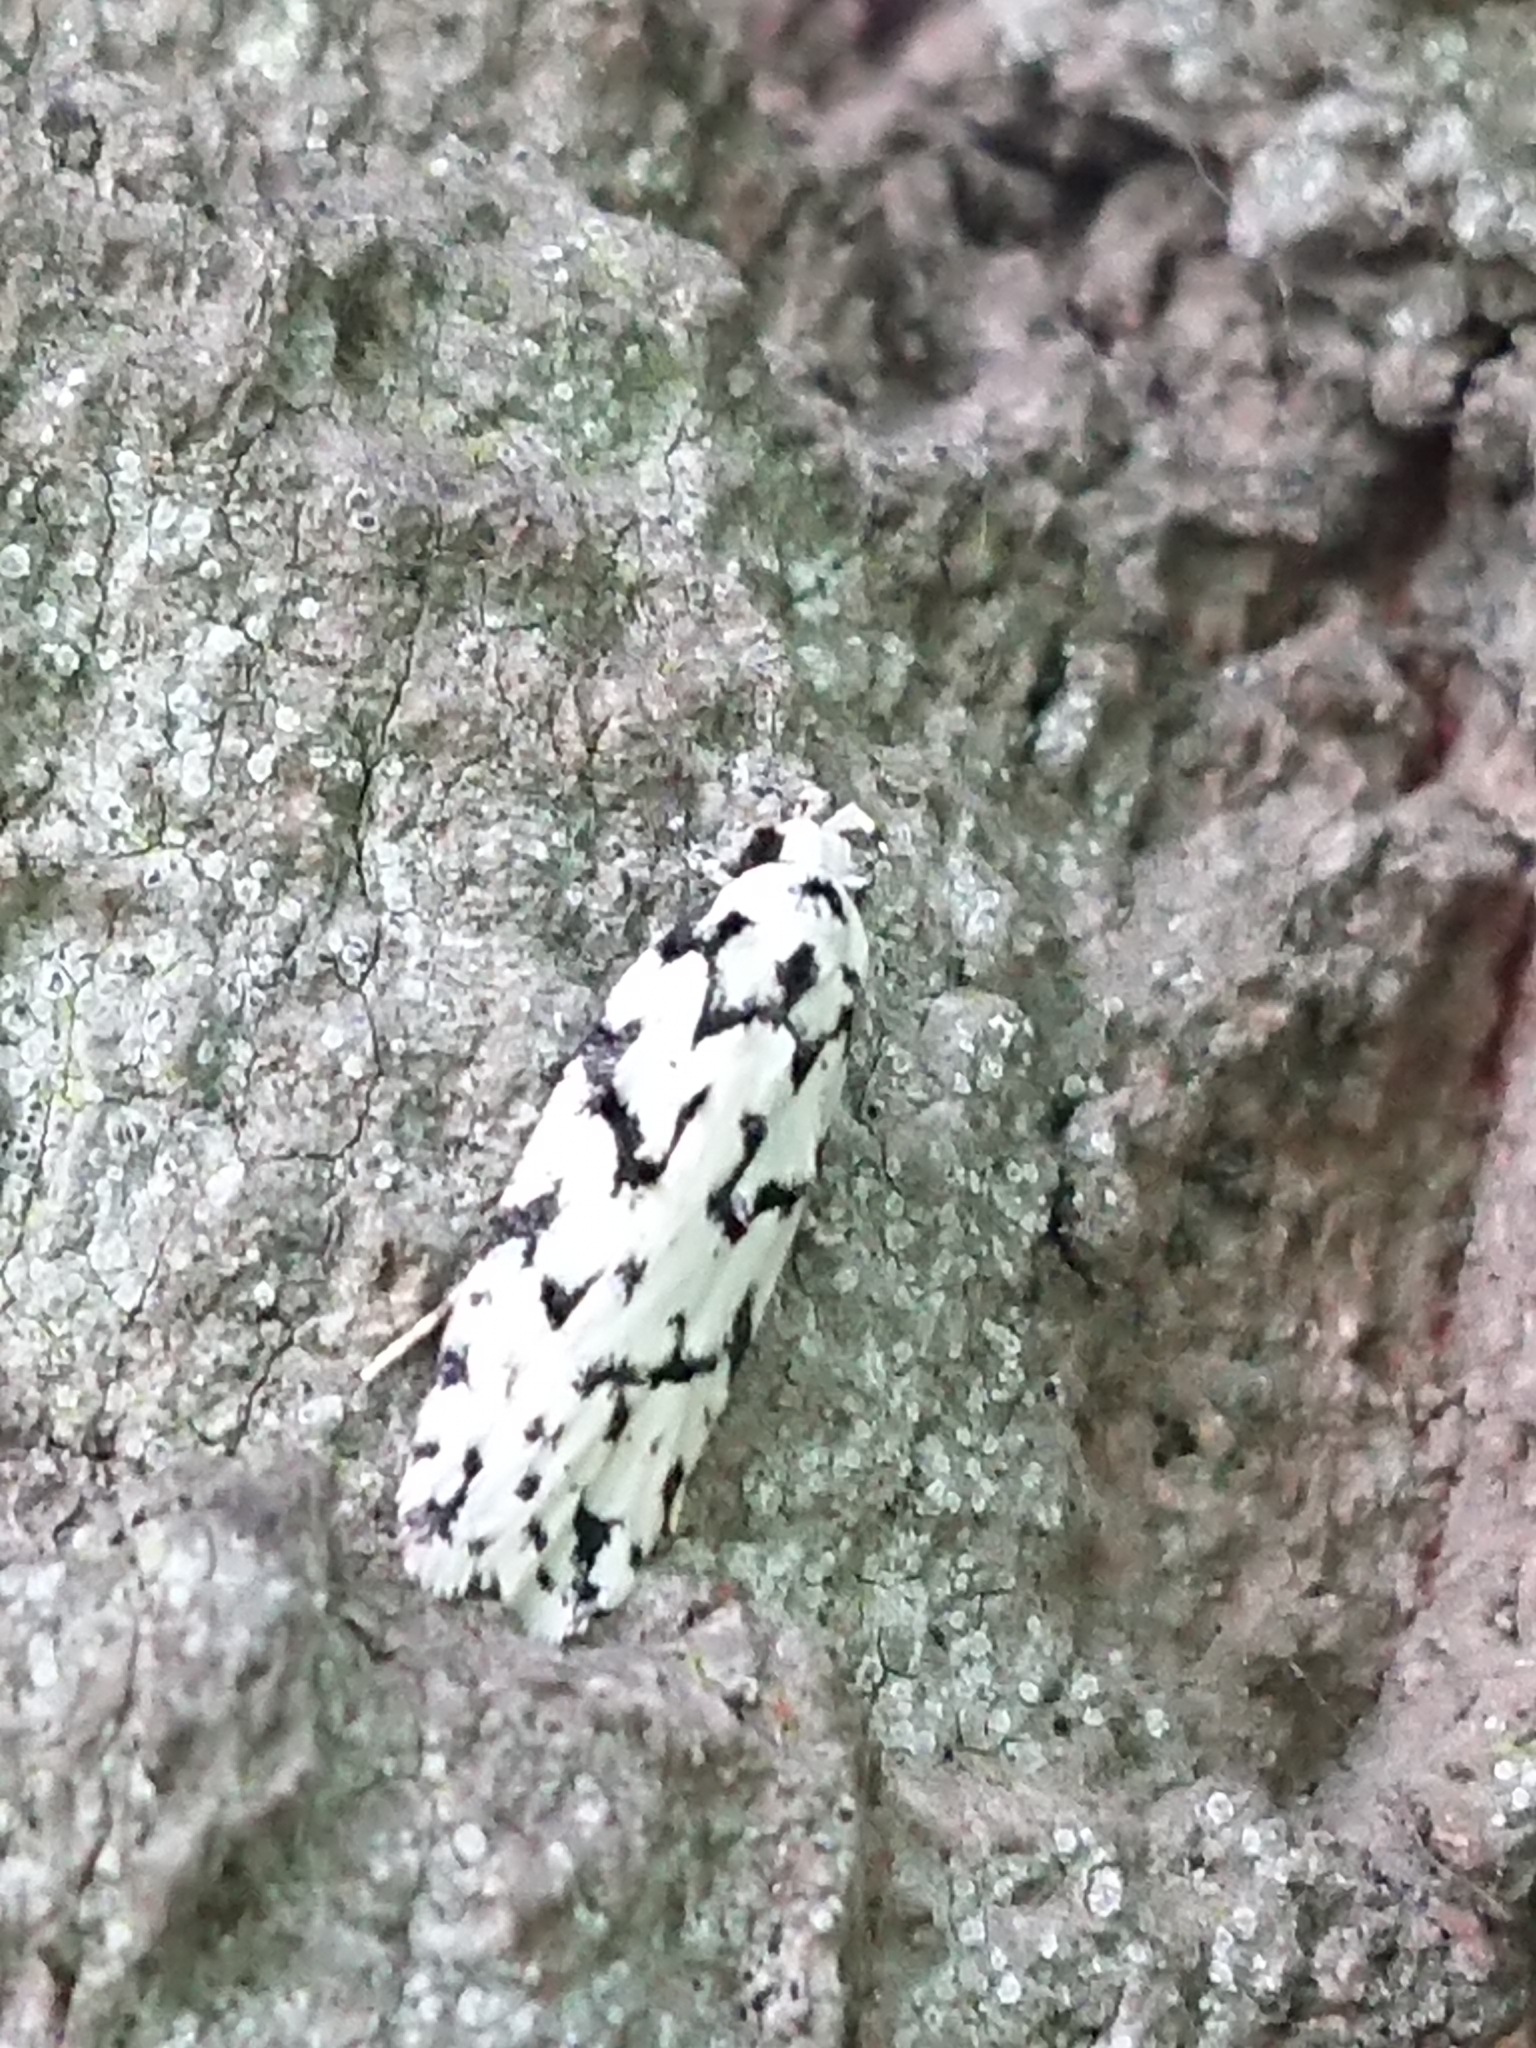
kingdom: Animalia
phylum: Arthropoda
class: Insecta
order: Lepidoptera
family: Oecophoridae
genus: Izatha
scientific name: Izatha katadiktya
